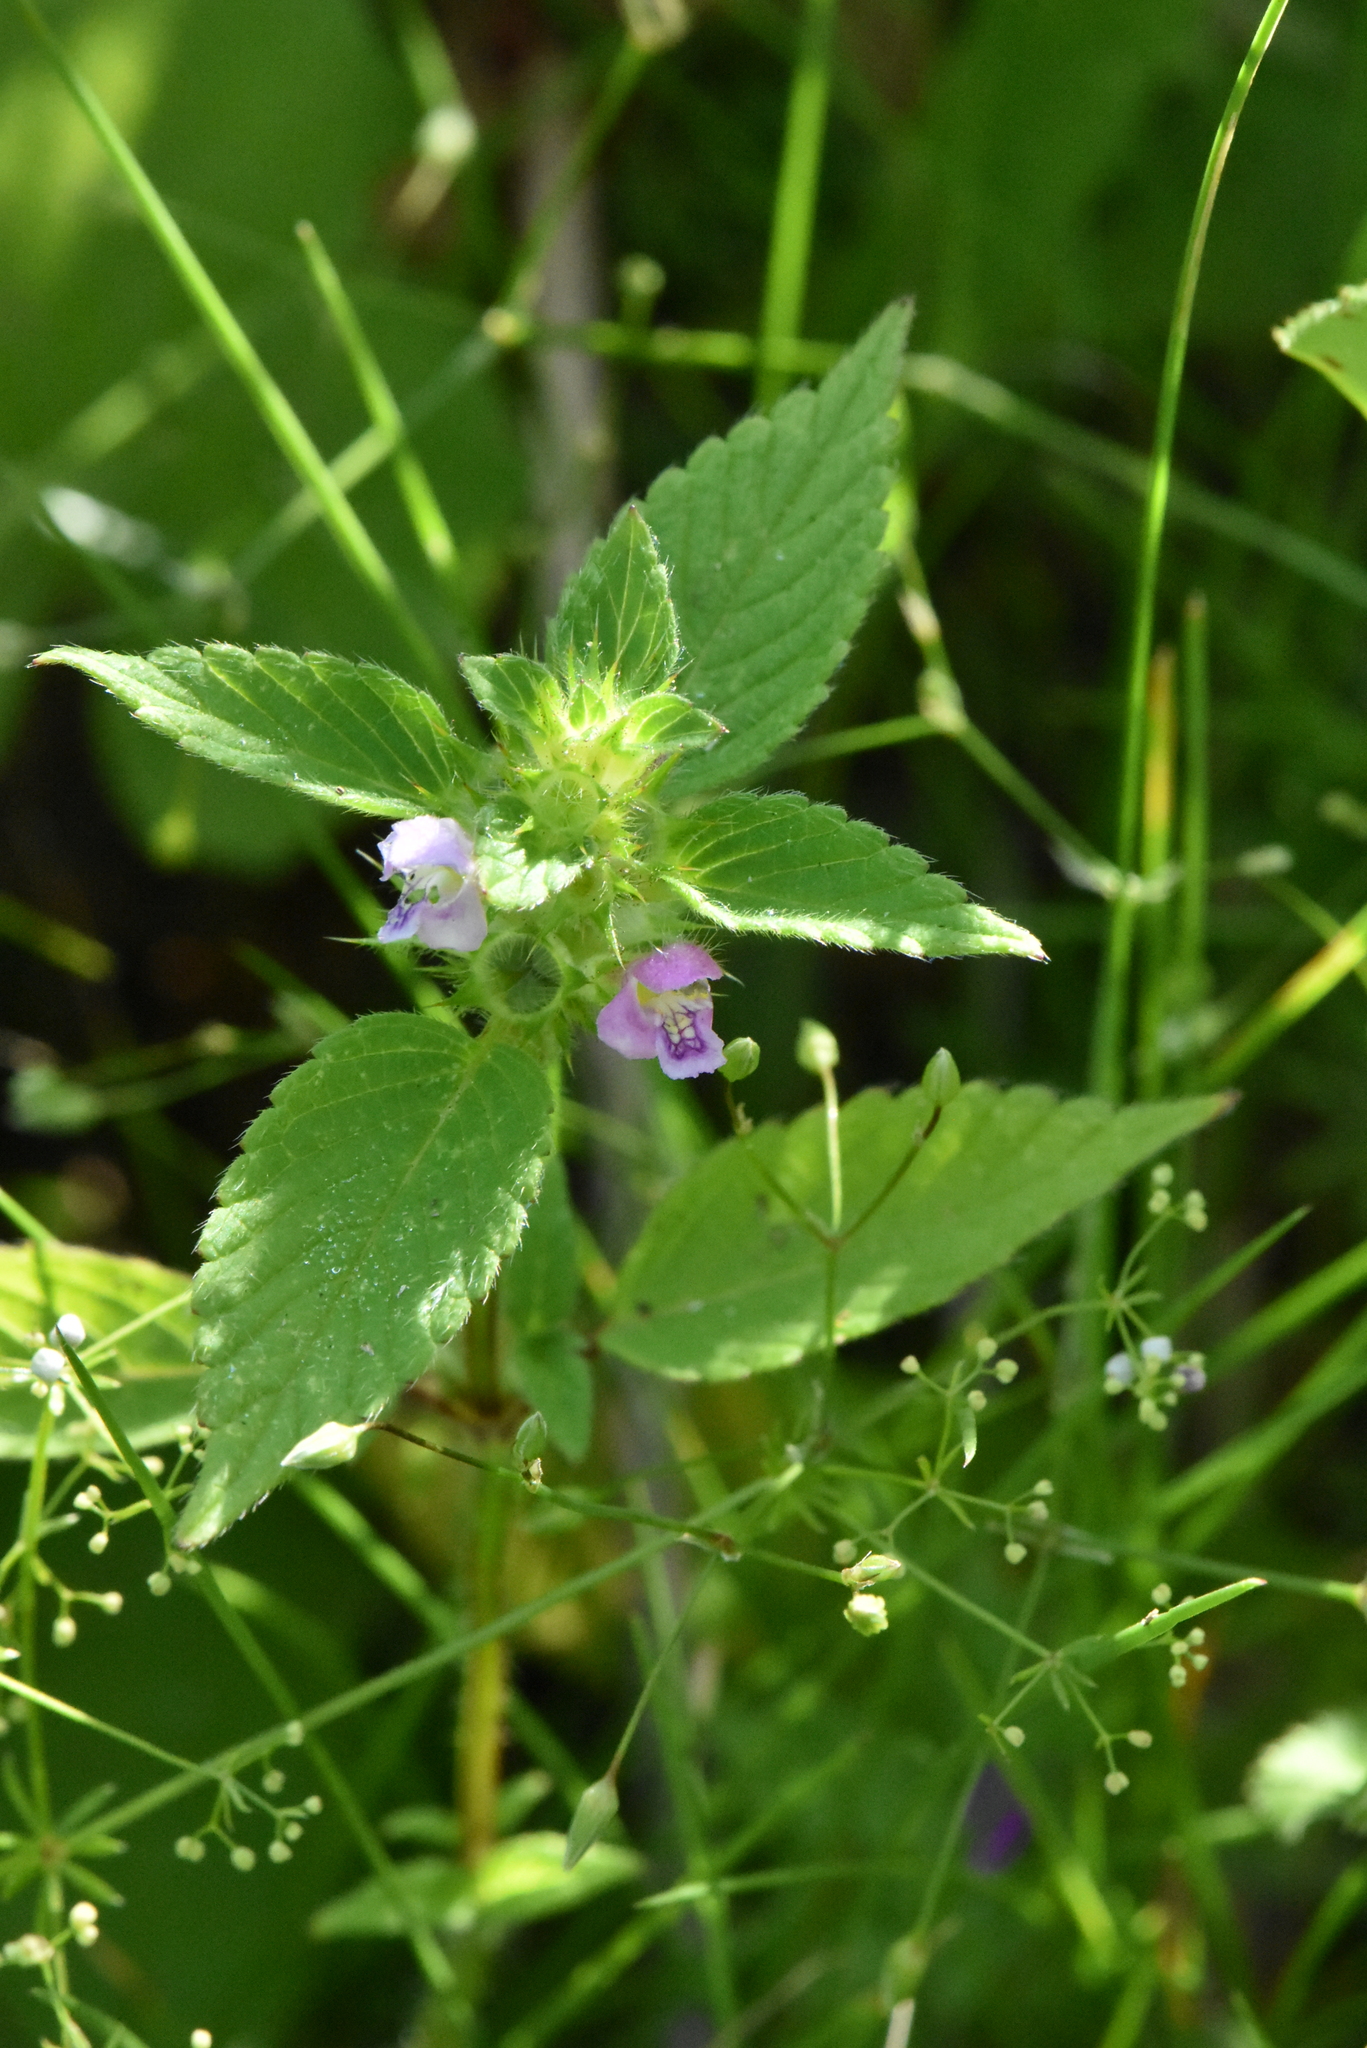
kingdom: Plantae
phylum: Tracheophyta
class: Magnoliopsida
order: Lamiales
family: Lamiaceae
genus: Galeopsis
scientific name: Galeopsis tetrahit
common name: Common hemp-nettle
